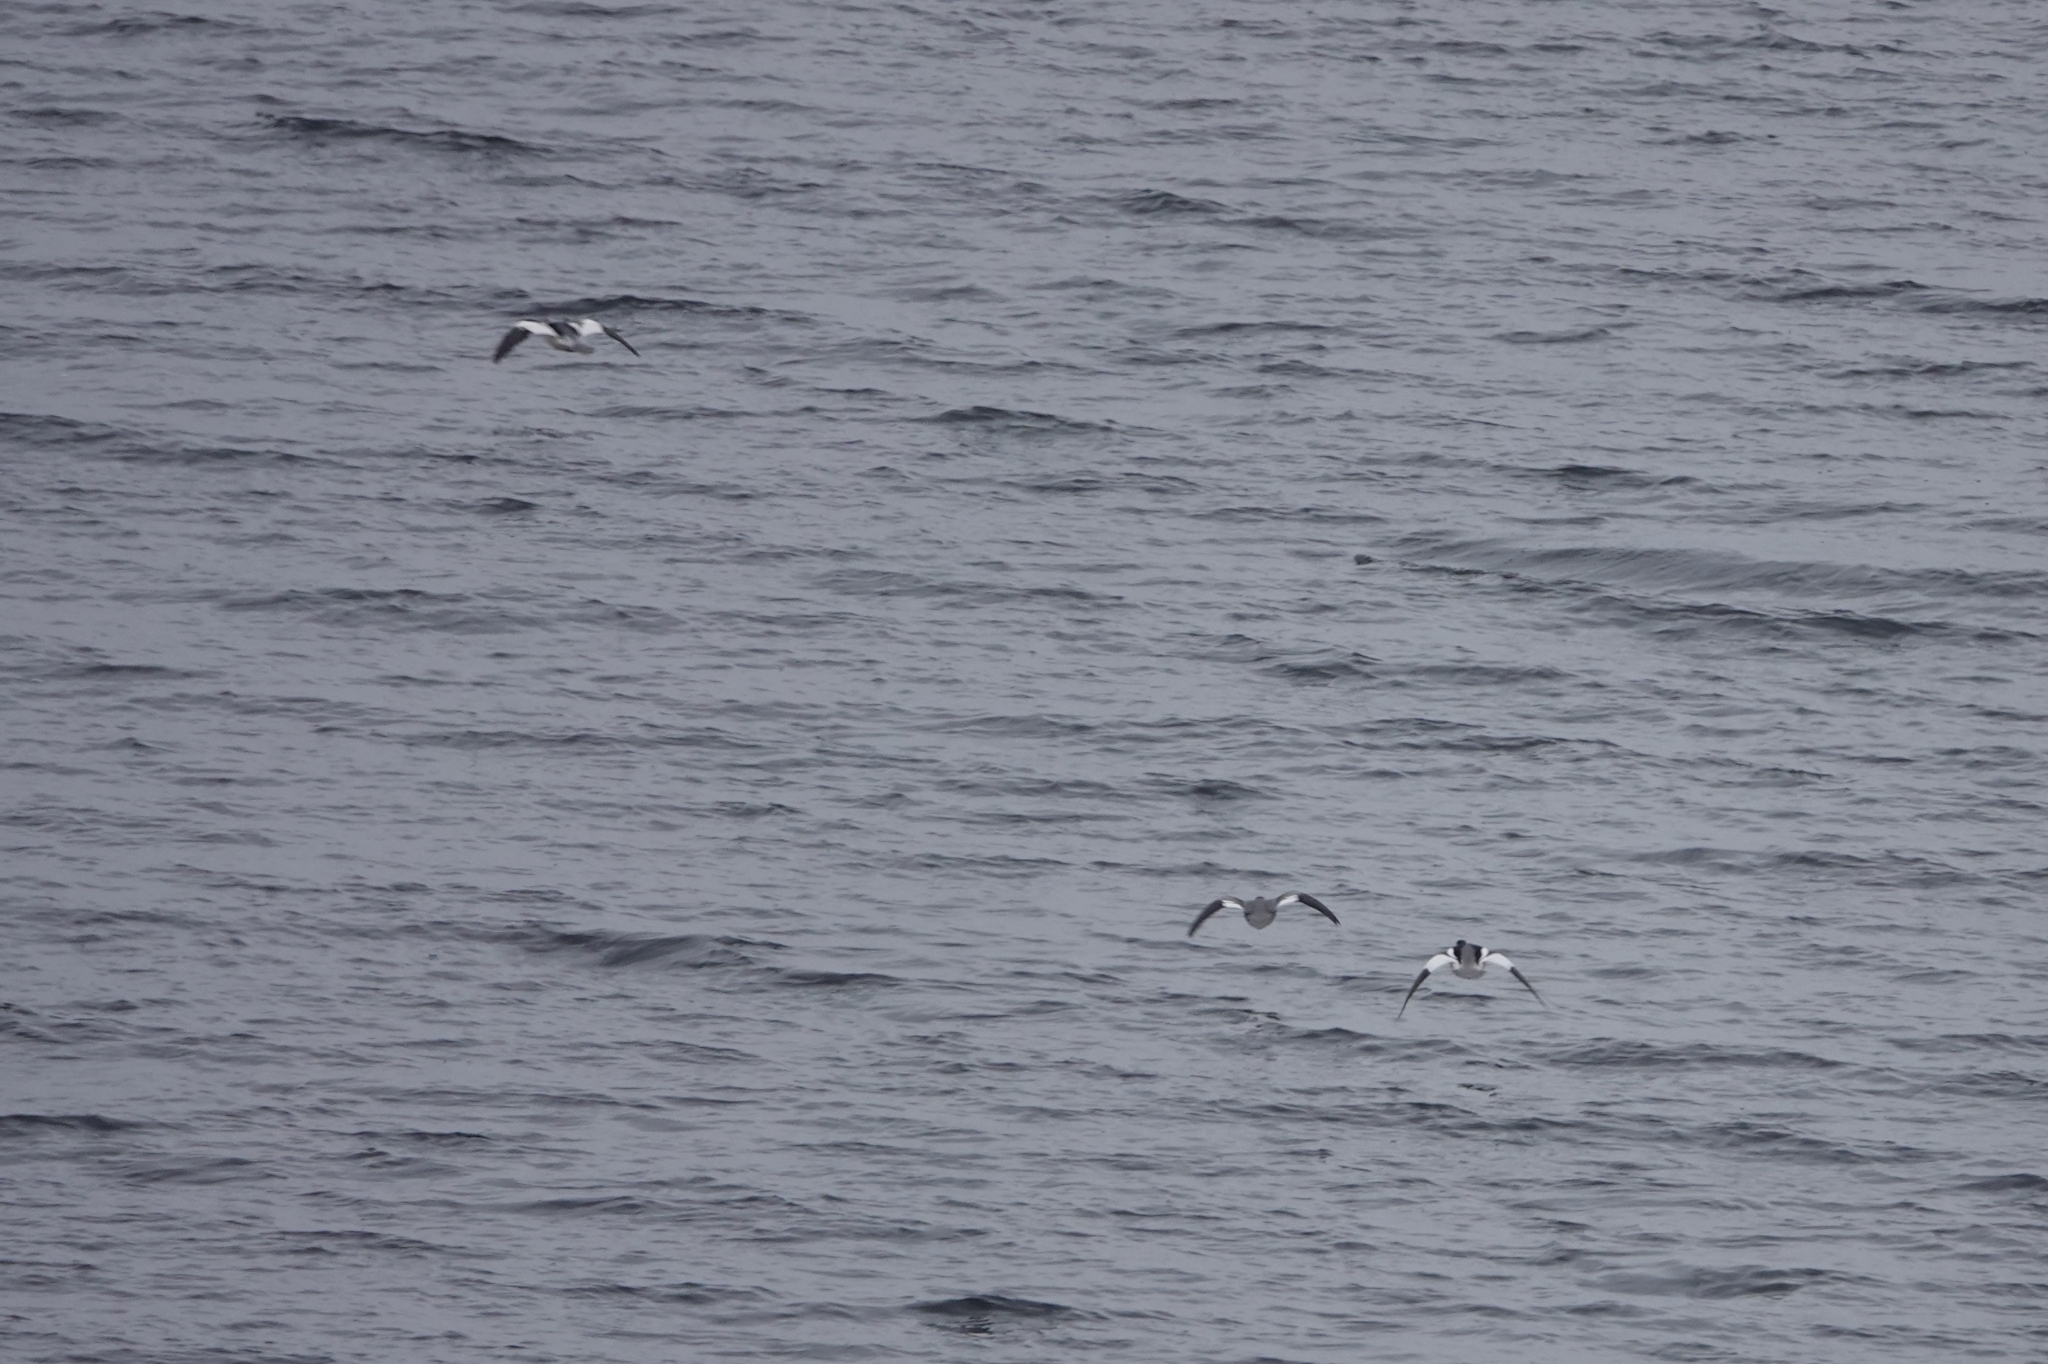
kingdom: Animalia
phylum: Chordata
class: Aves
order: Anseriformes
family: Anatidae
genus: Mergus
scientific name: Mergus merganser
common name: Common merganser
